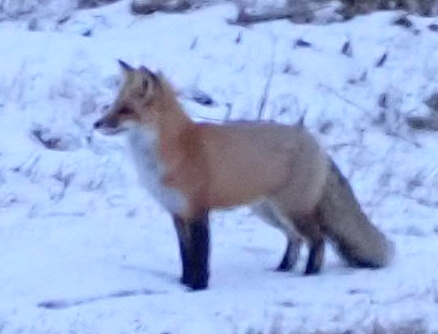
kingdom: Animalia
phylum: Chordata
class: Mammalia
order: Carnivora
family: Canidae
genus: Vulpes
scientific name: Vulpes vulpes
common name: Red fox
